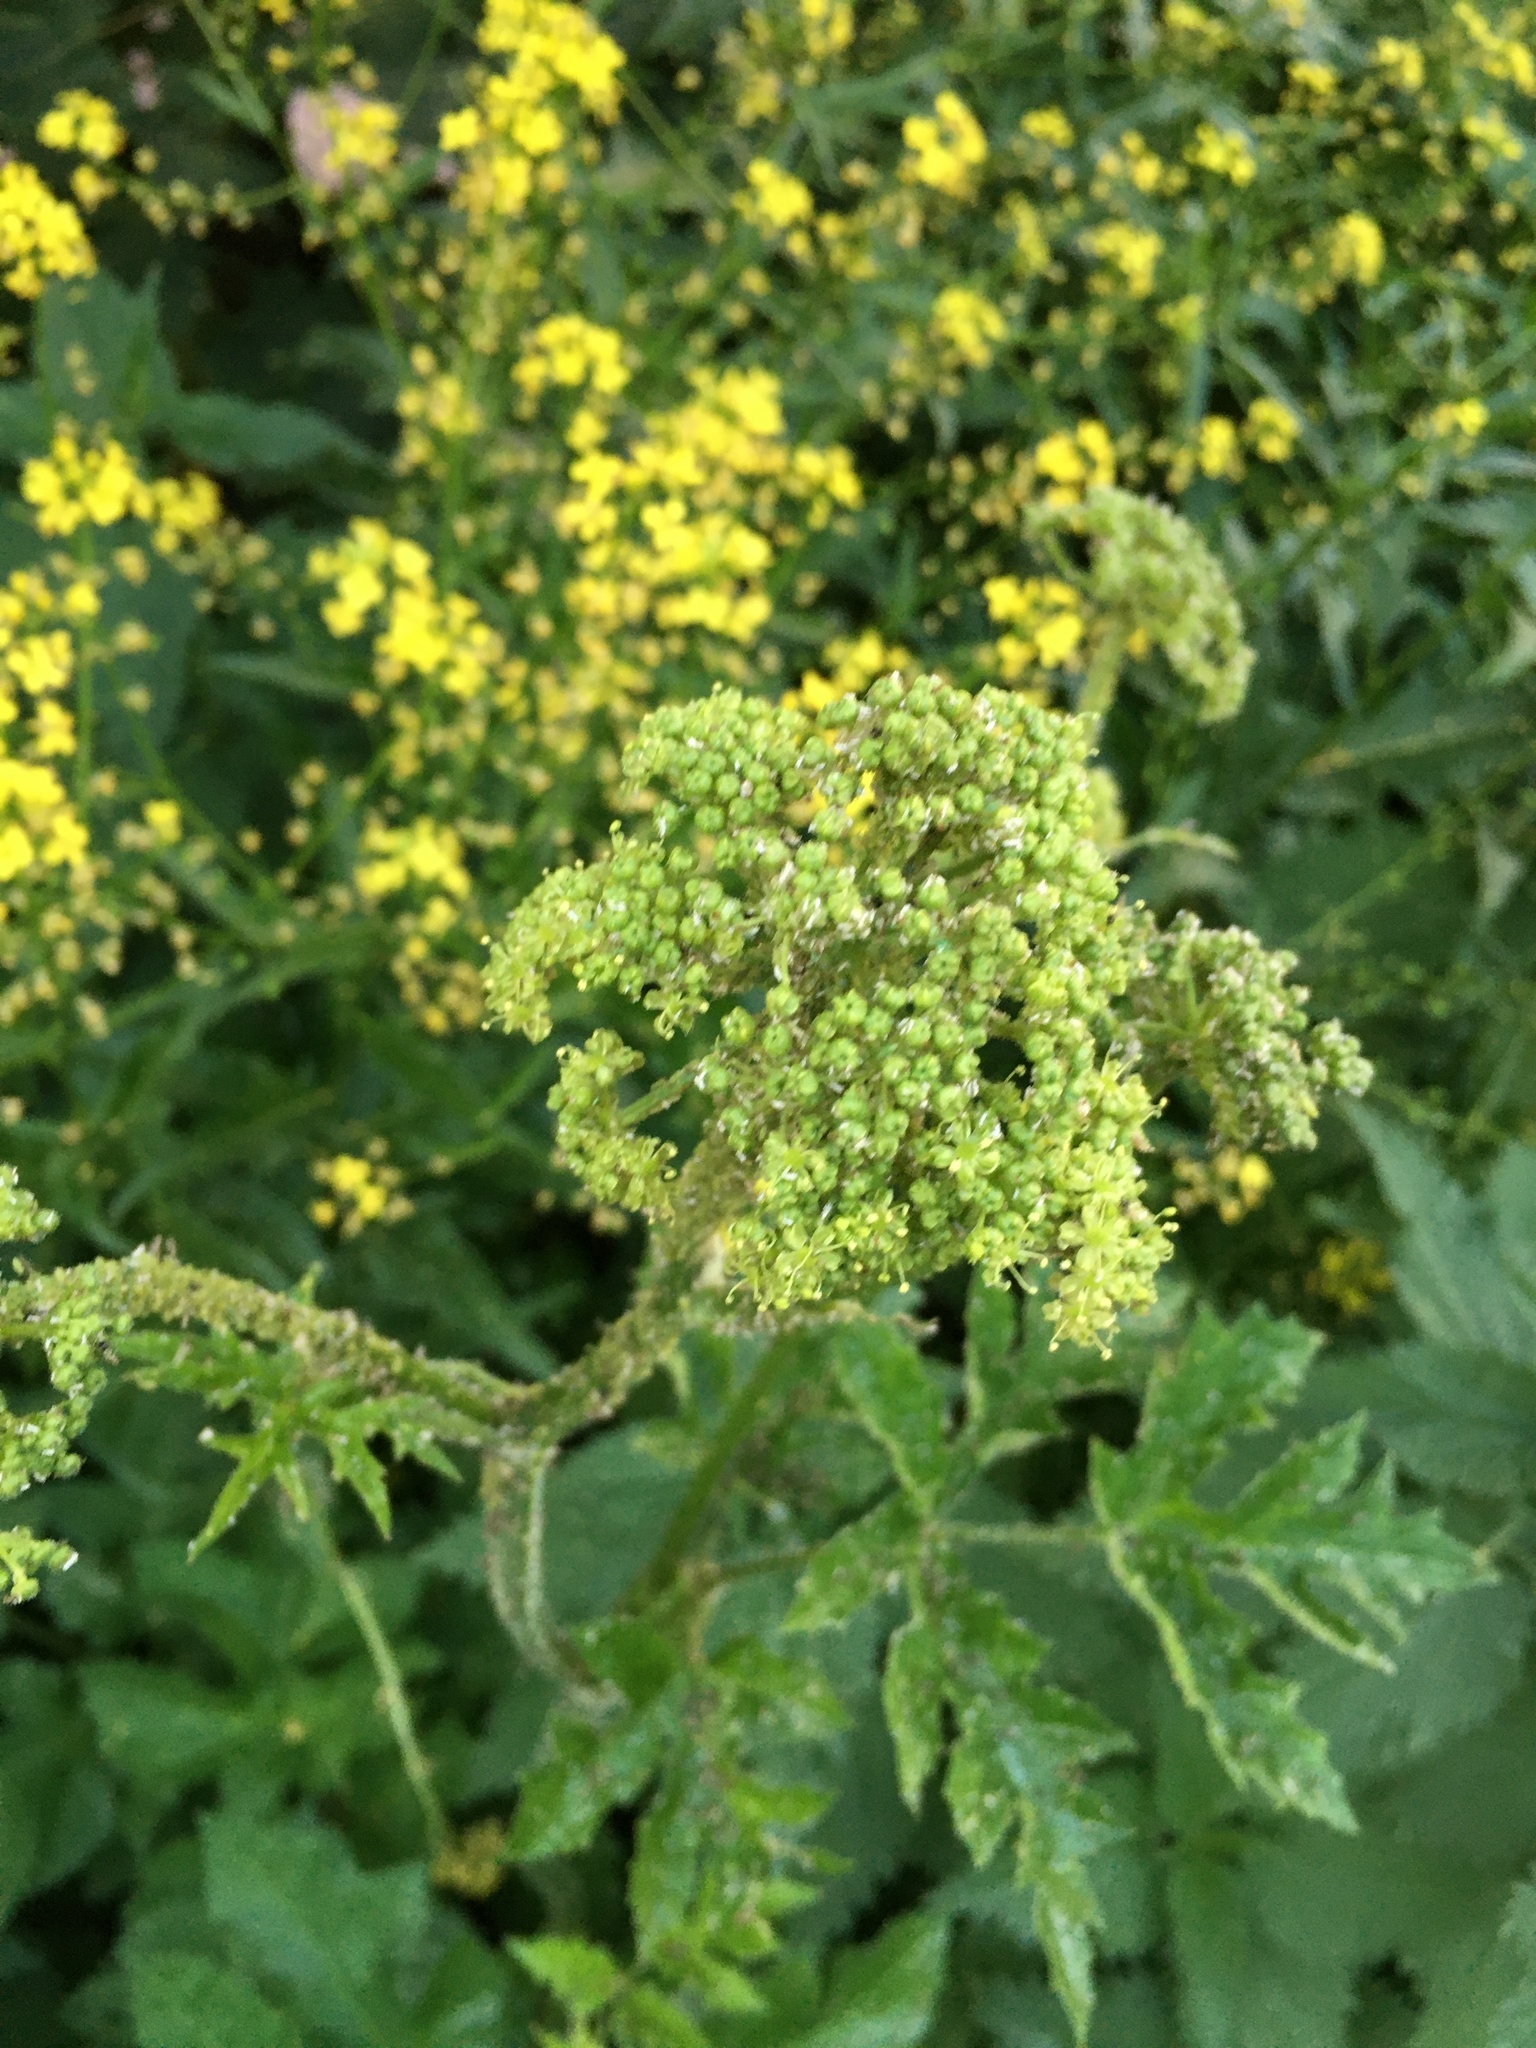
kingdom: Plantae
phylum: Tracheophyta
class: Magnoliopsida
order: Apiales
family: Apiaceae
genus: Heracleum
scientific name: Heracleum sphondylium
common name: Hogweed
